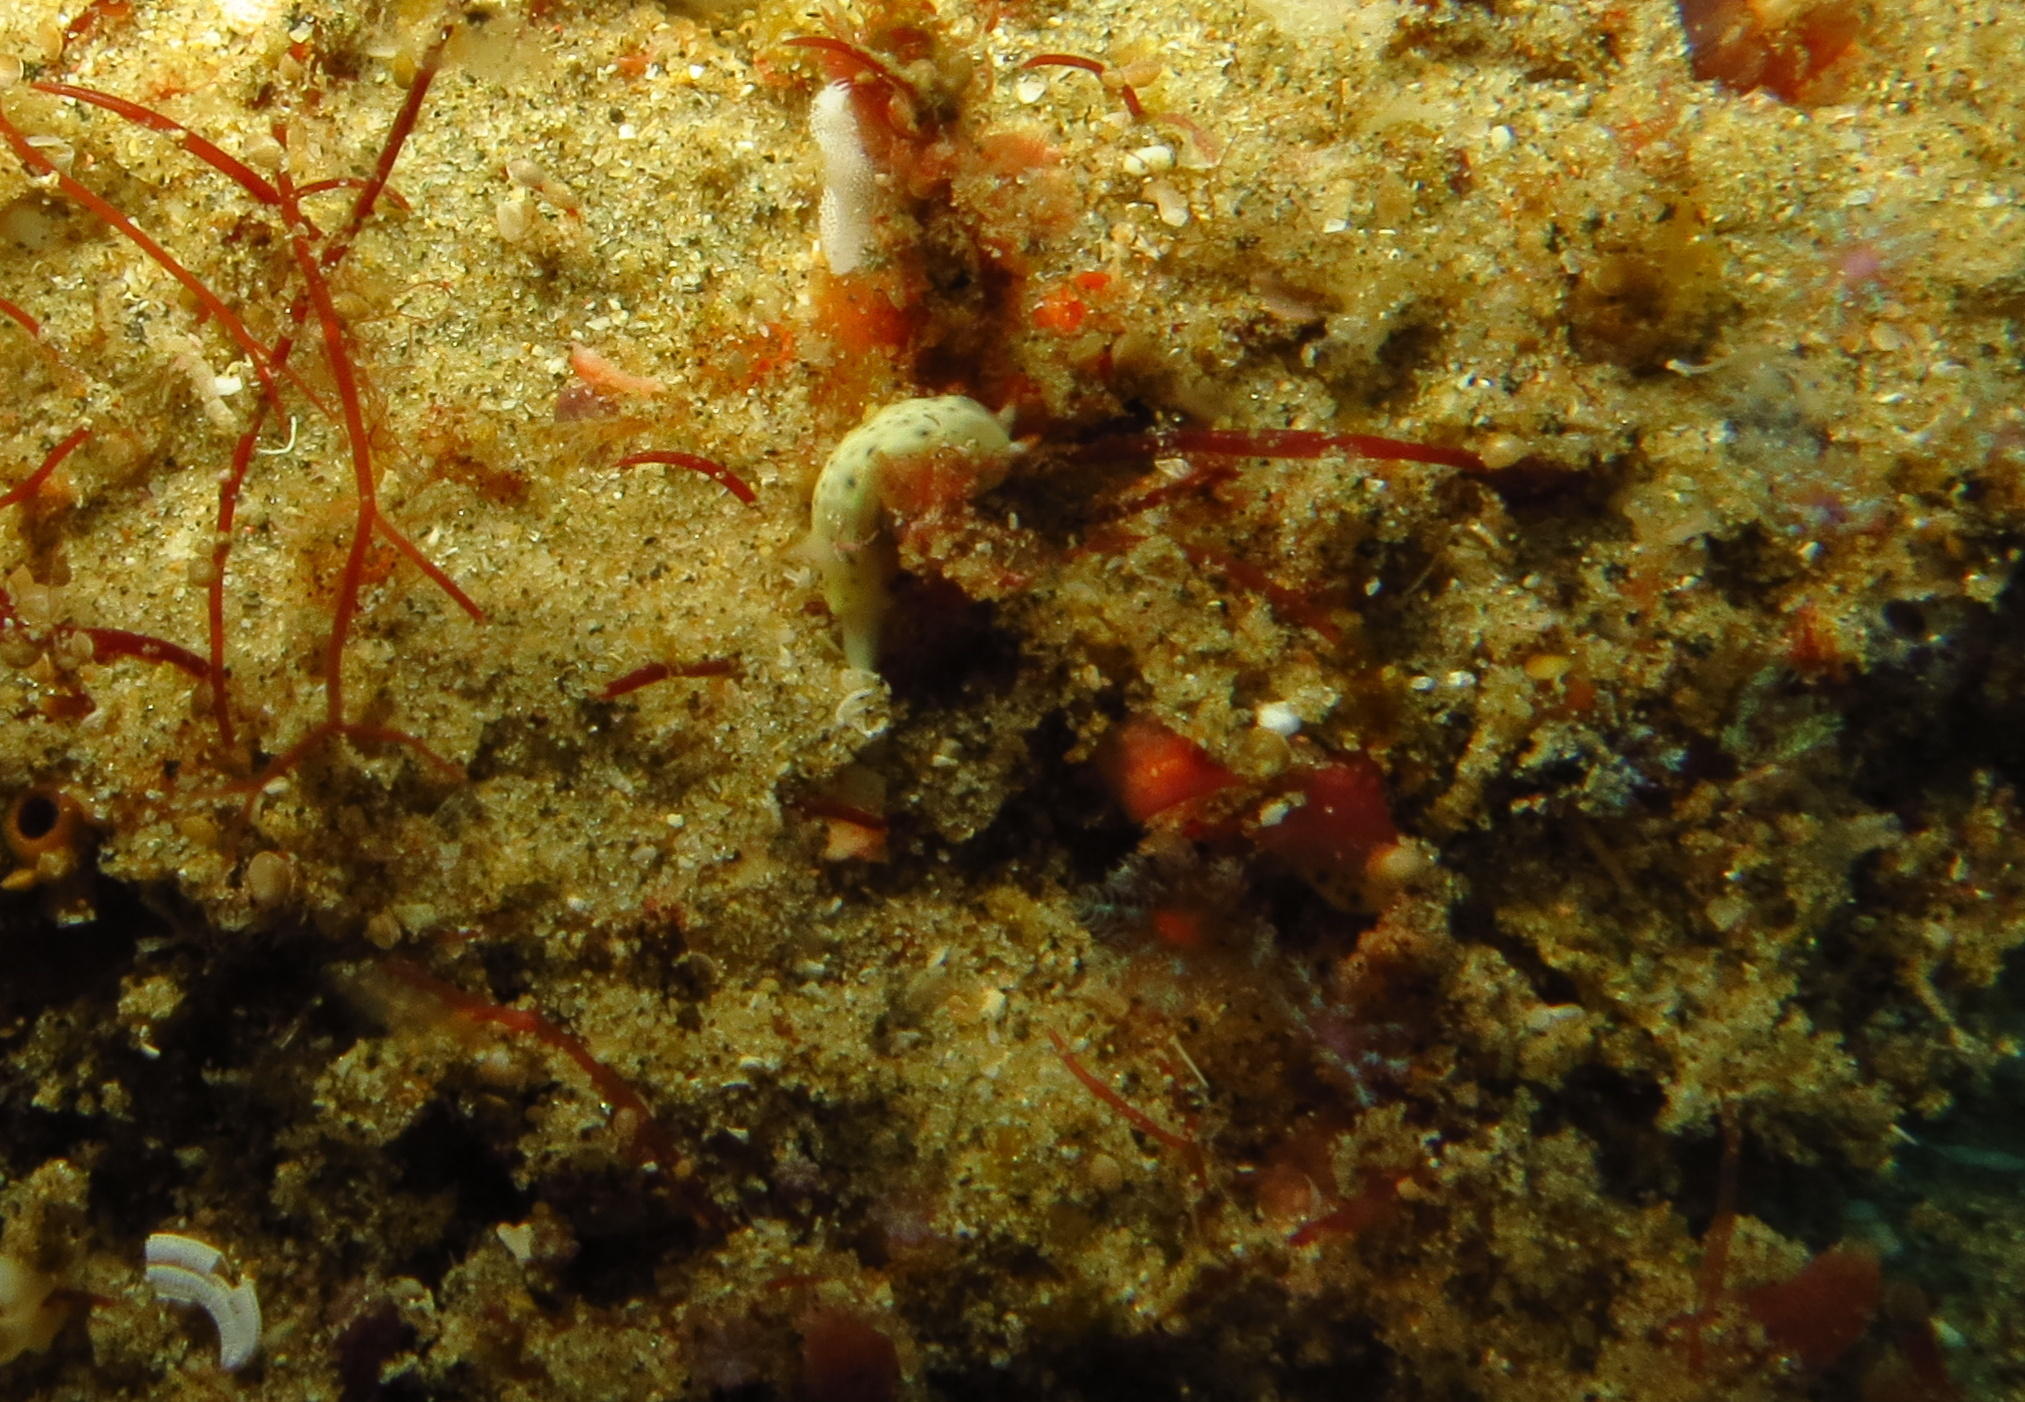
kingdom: Animalia
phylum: Mollusca
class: Gastropoda
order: Nudibranchia
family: Chromodorididae
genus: Hypselodoris
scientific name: Hypselodoris rudmani
